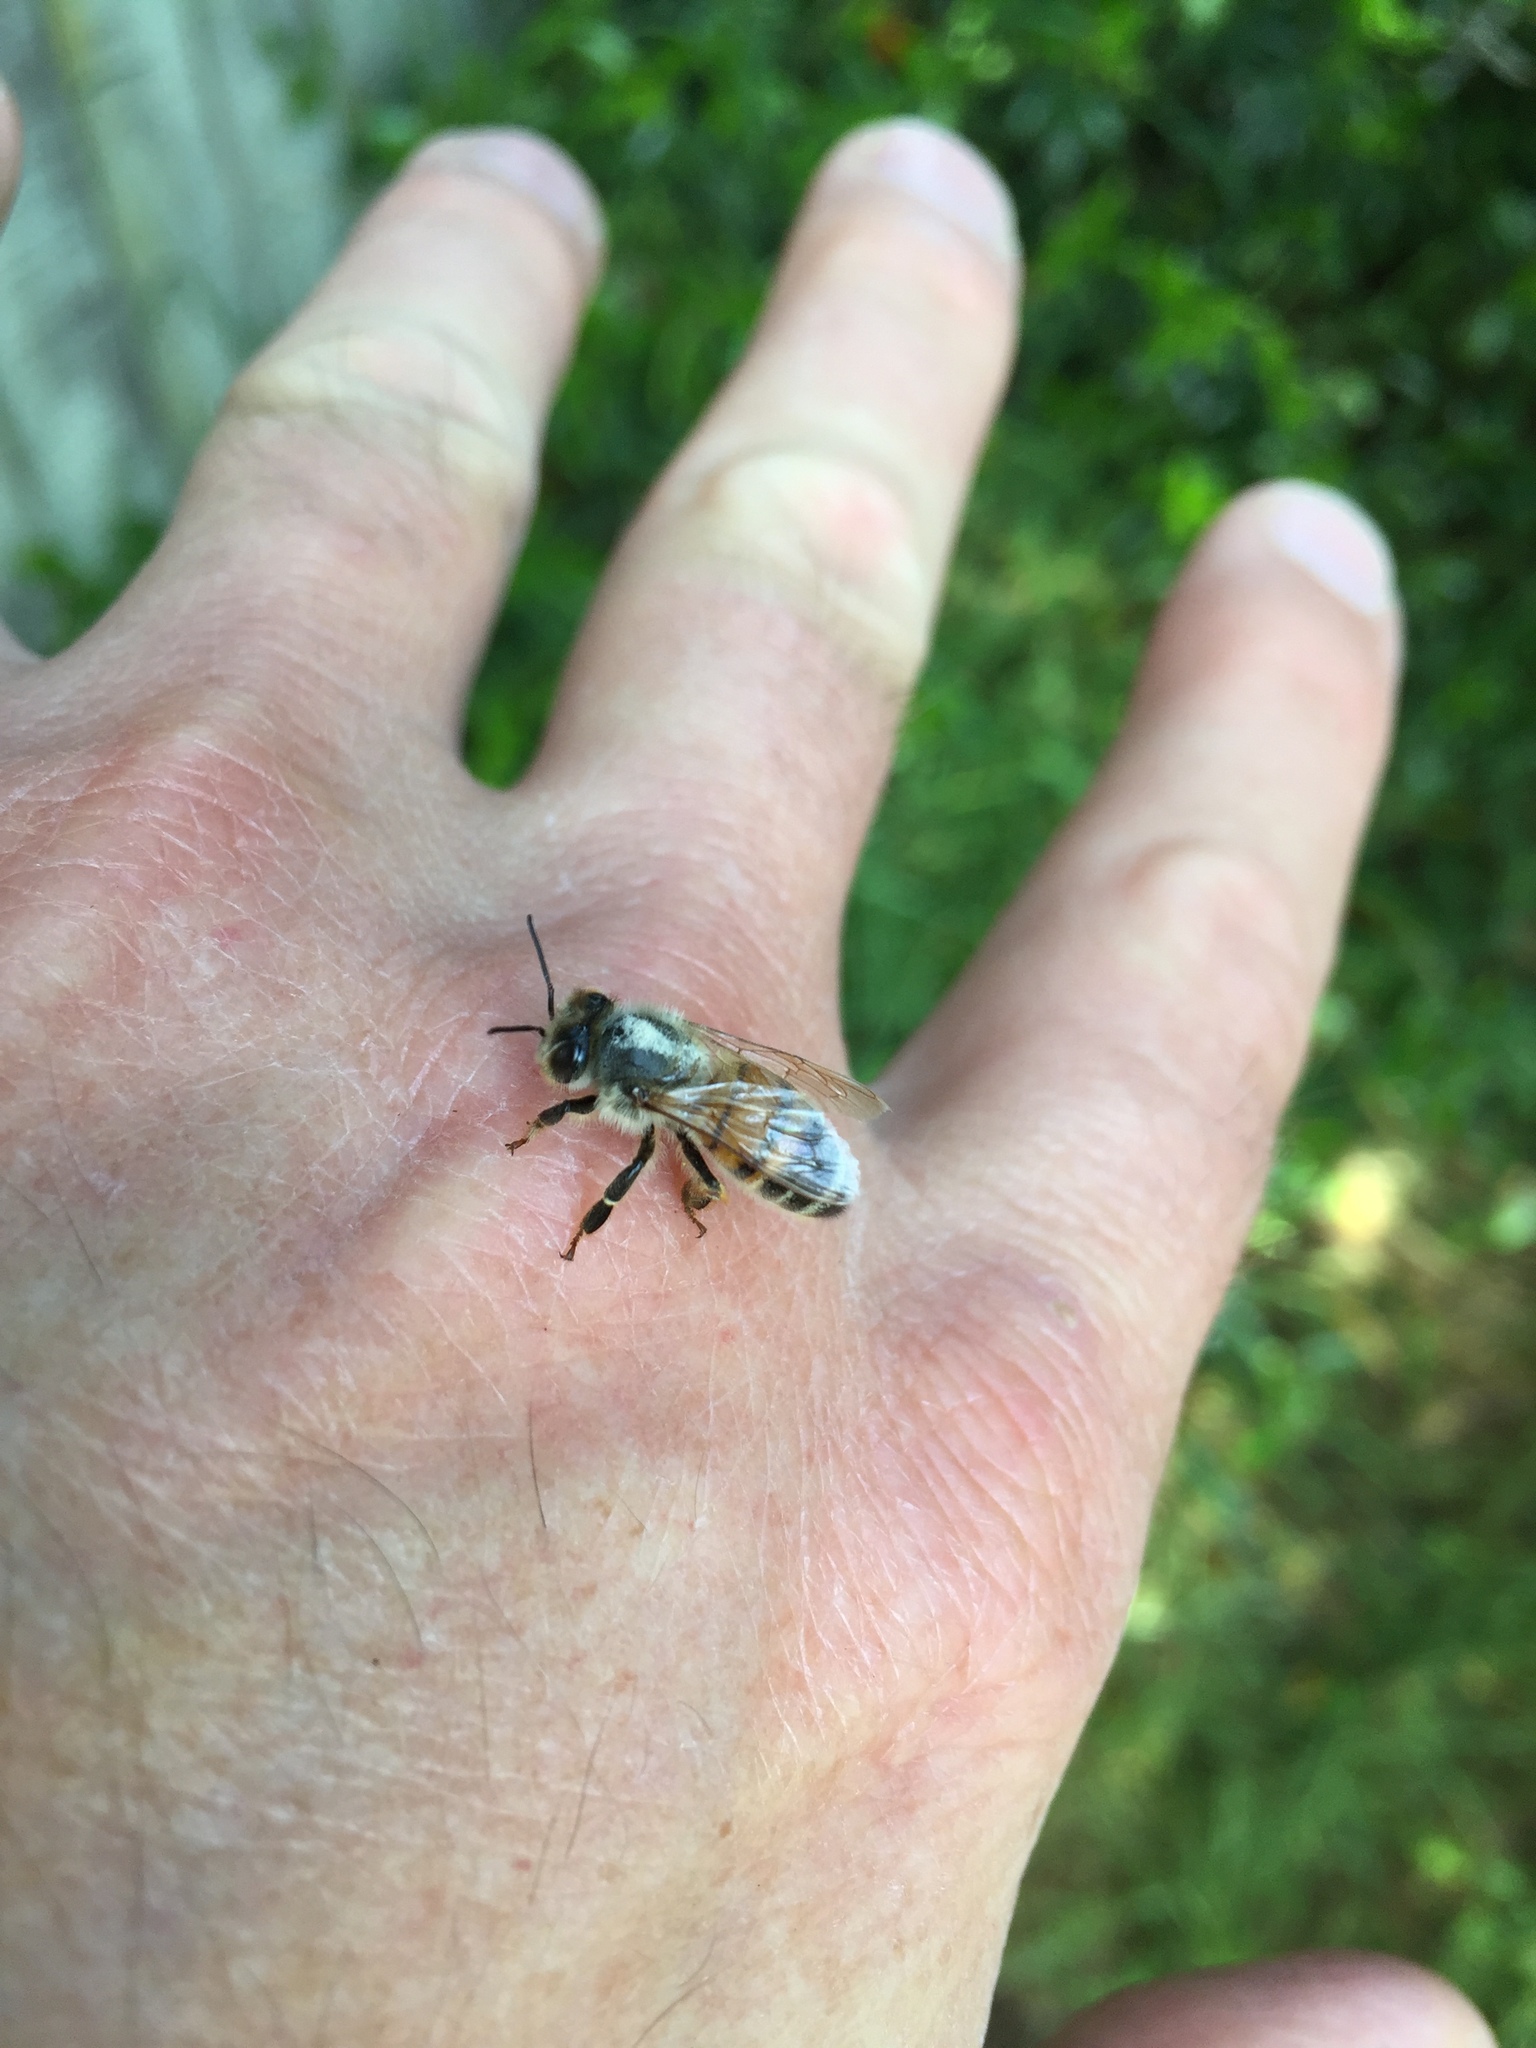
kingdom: Animalia
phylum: Arthropoda
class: Insecta
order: Hymenoptera
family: Apidae
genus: Apis
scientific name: Apis mellifera
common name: Honey bee
